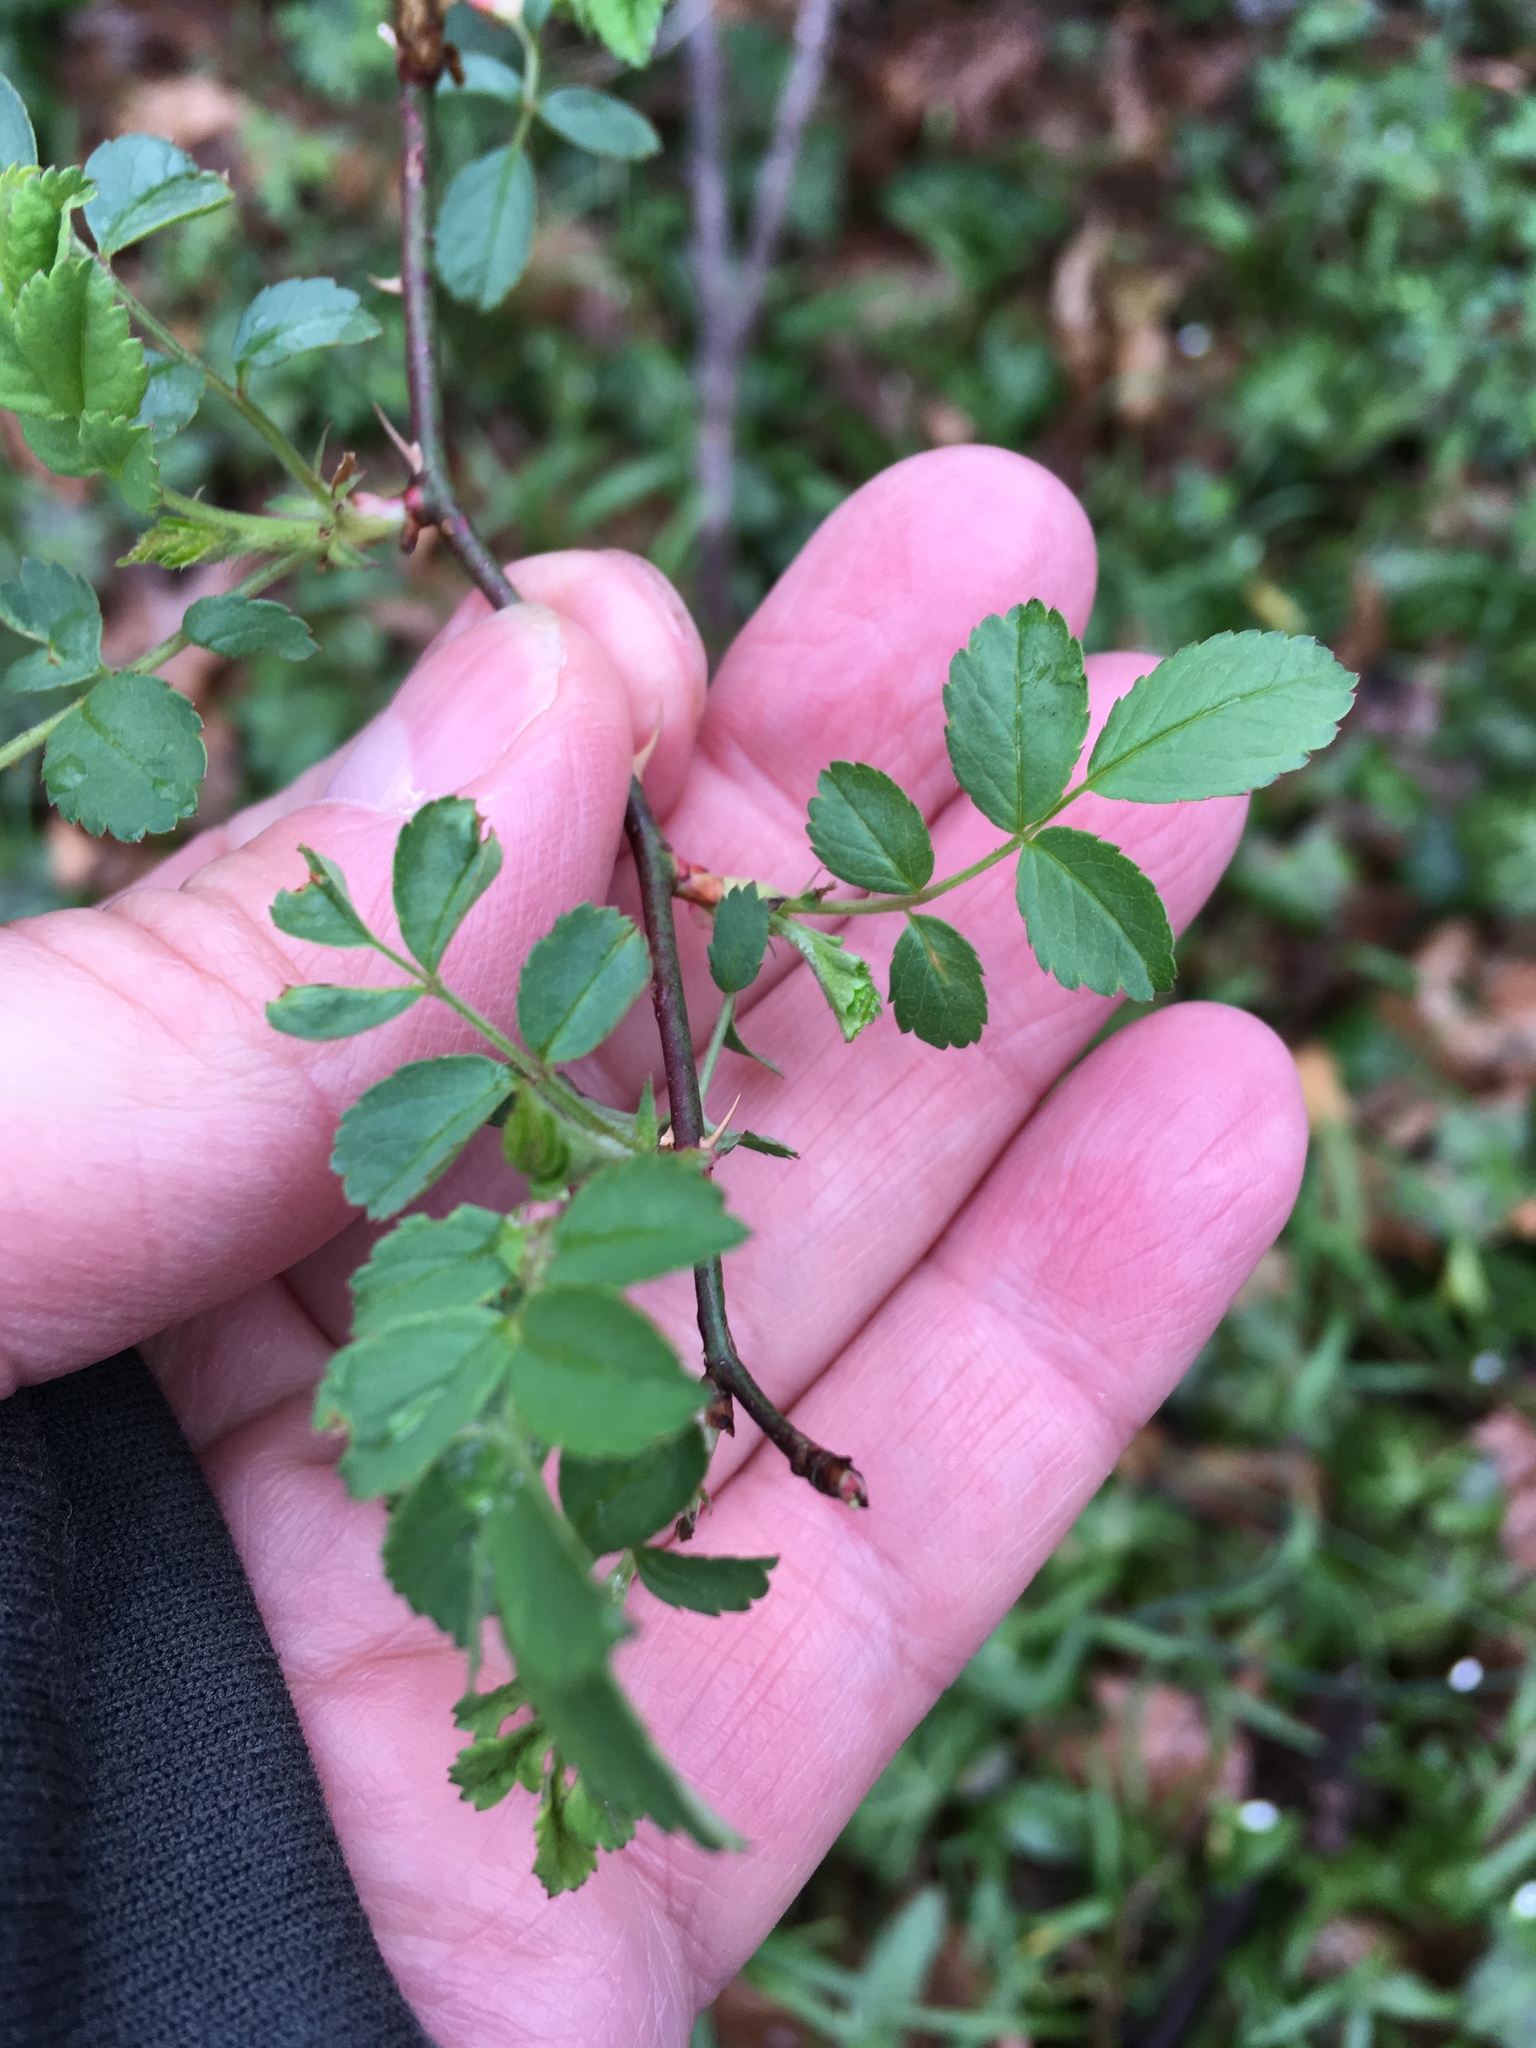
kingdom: Plantae
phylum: Tracheophyta
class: Magnoliopsida
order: Rosales
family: Rosaceae
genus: Rosa
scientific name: Rosa multiflora
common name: Multiflora rose
